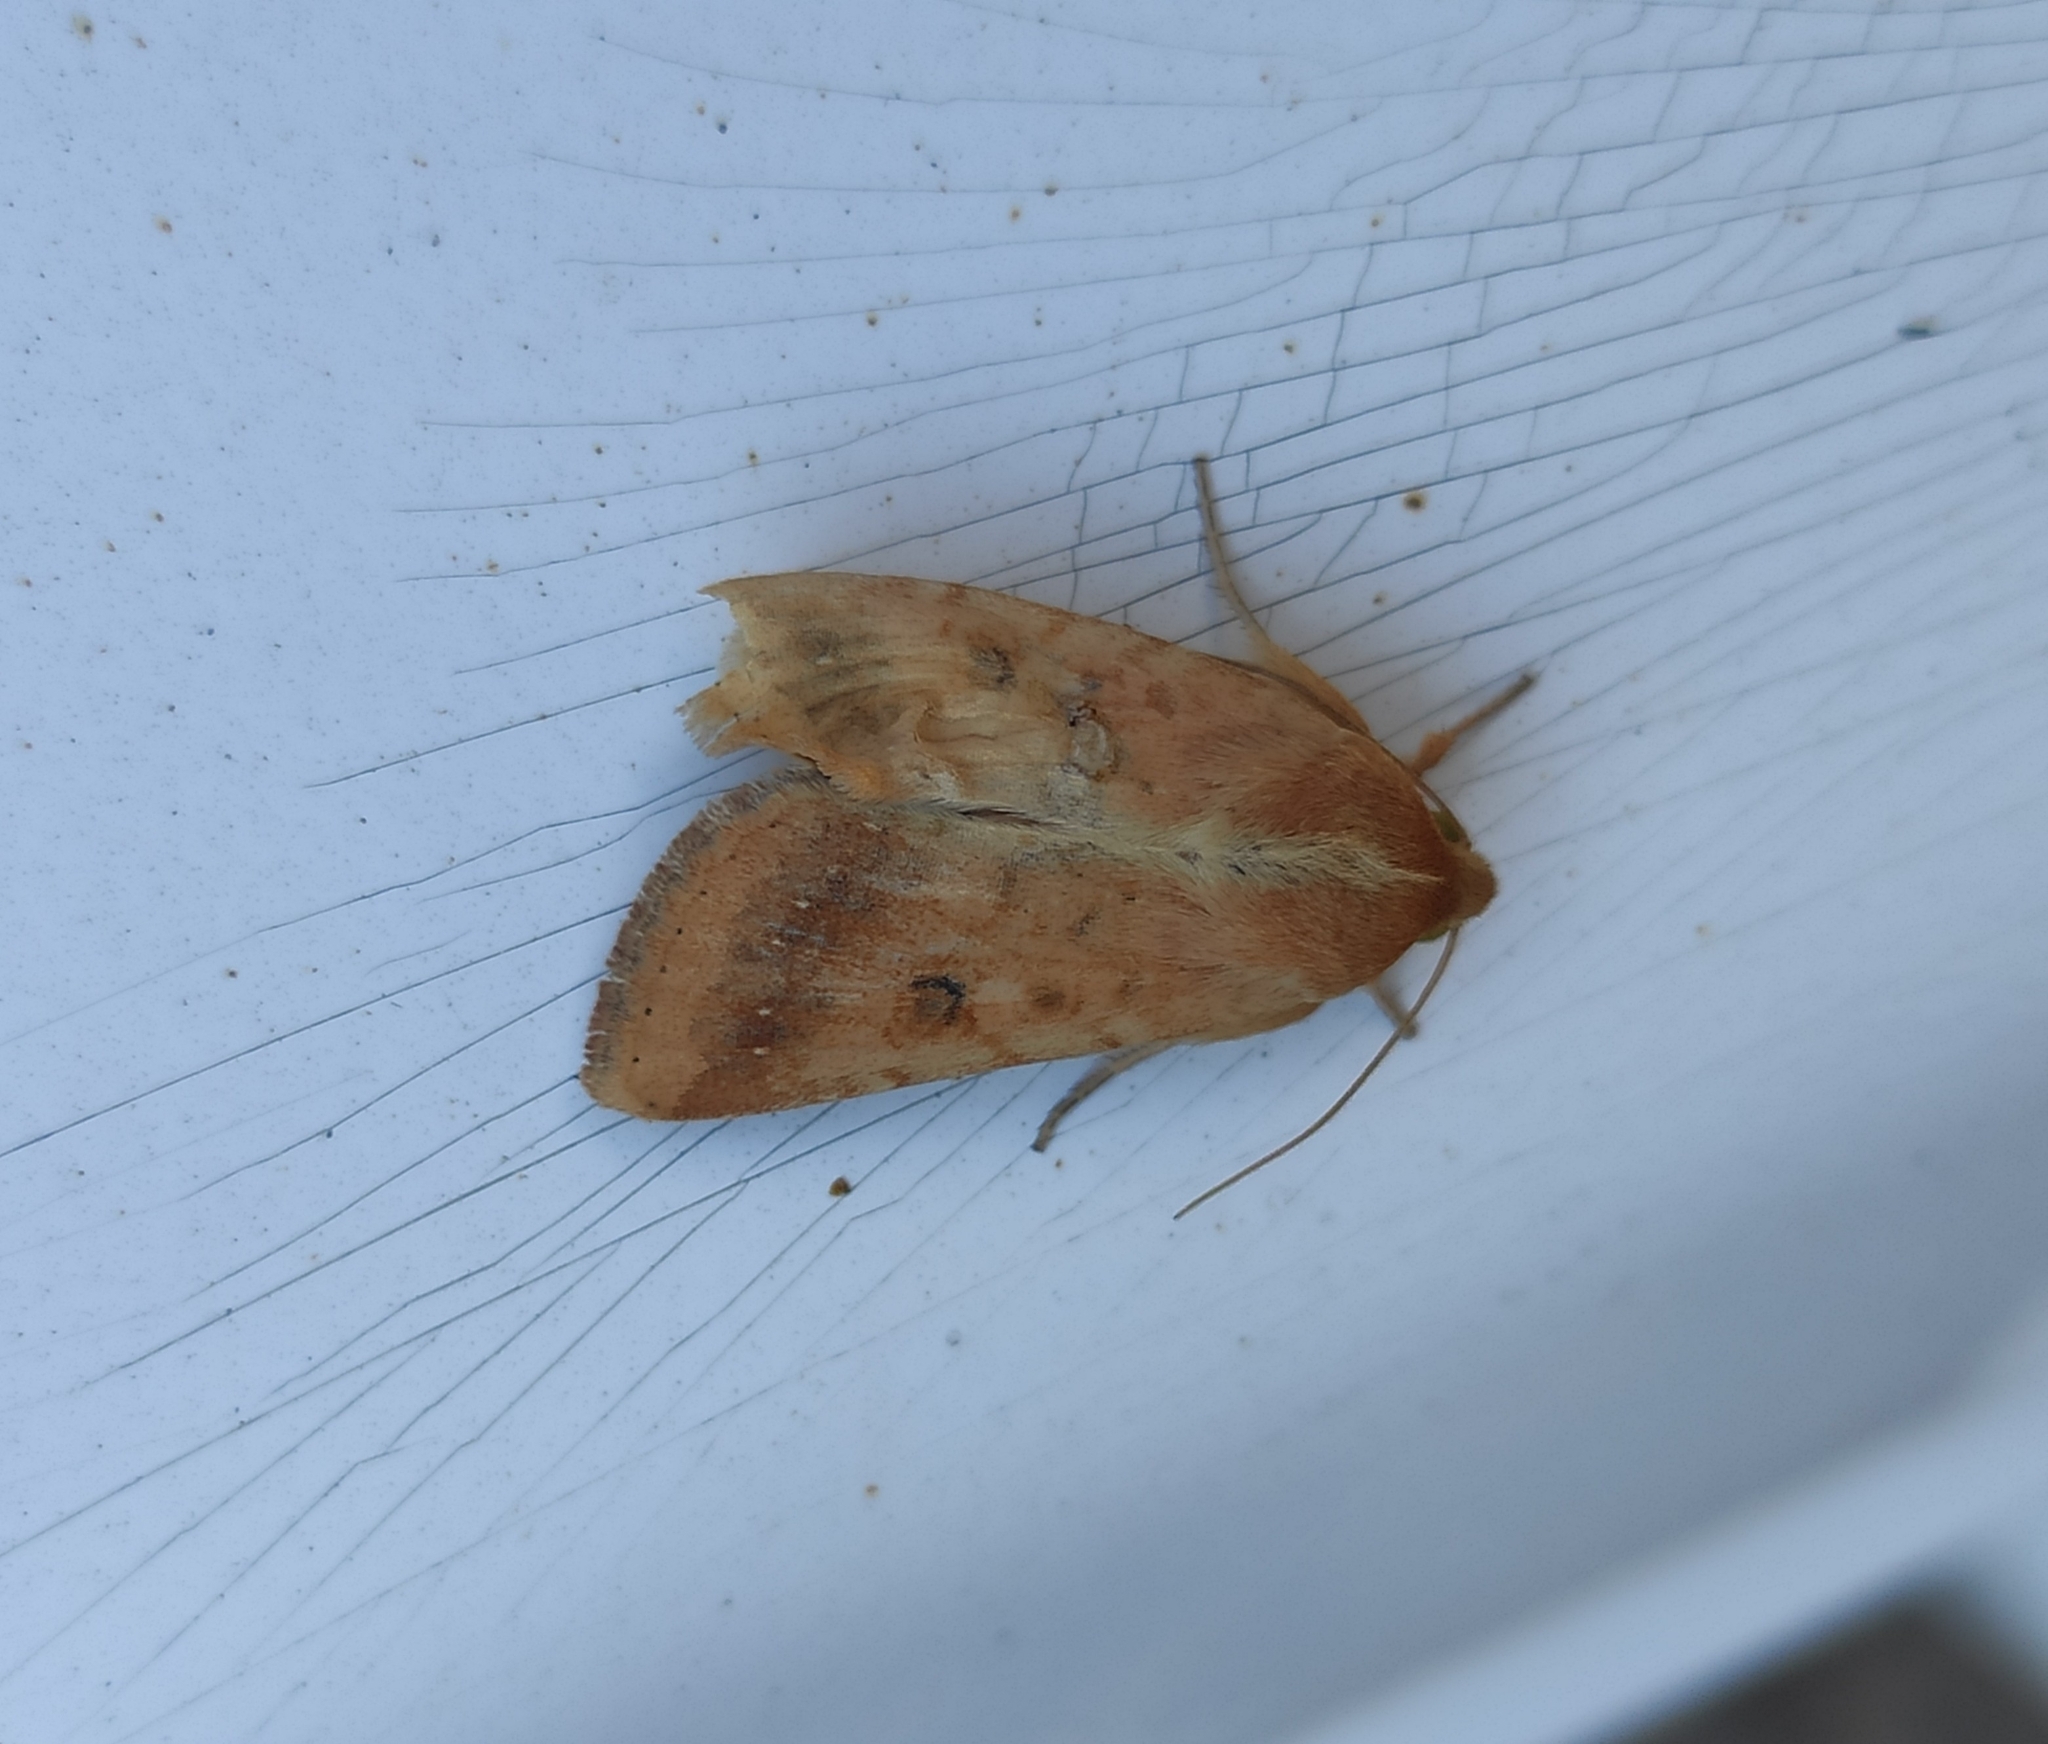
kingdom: Animalia
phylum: Arthropoda
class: Insecta
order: Lepidoptera
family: Noctuidae
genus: Helicoverpa
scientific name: Helicoverpa armigera
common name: Cotton bollworm
